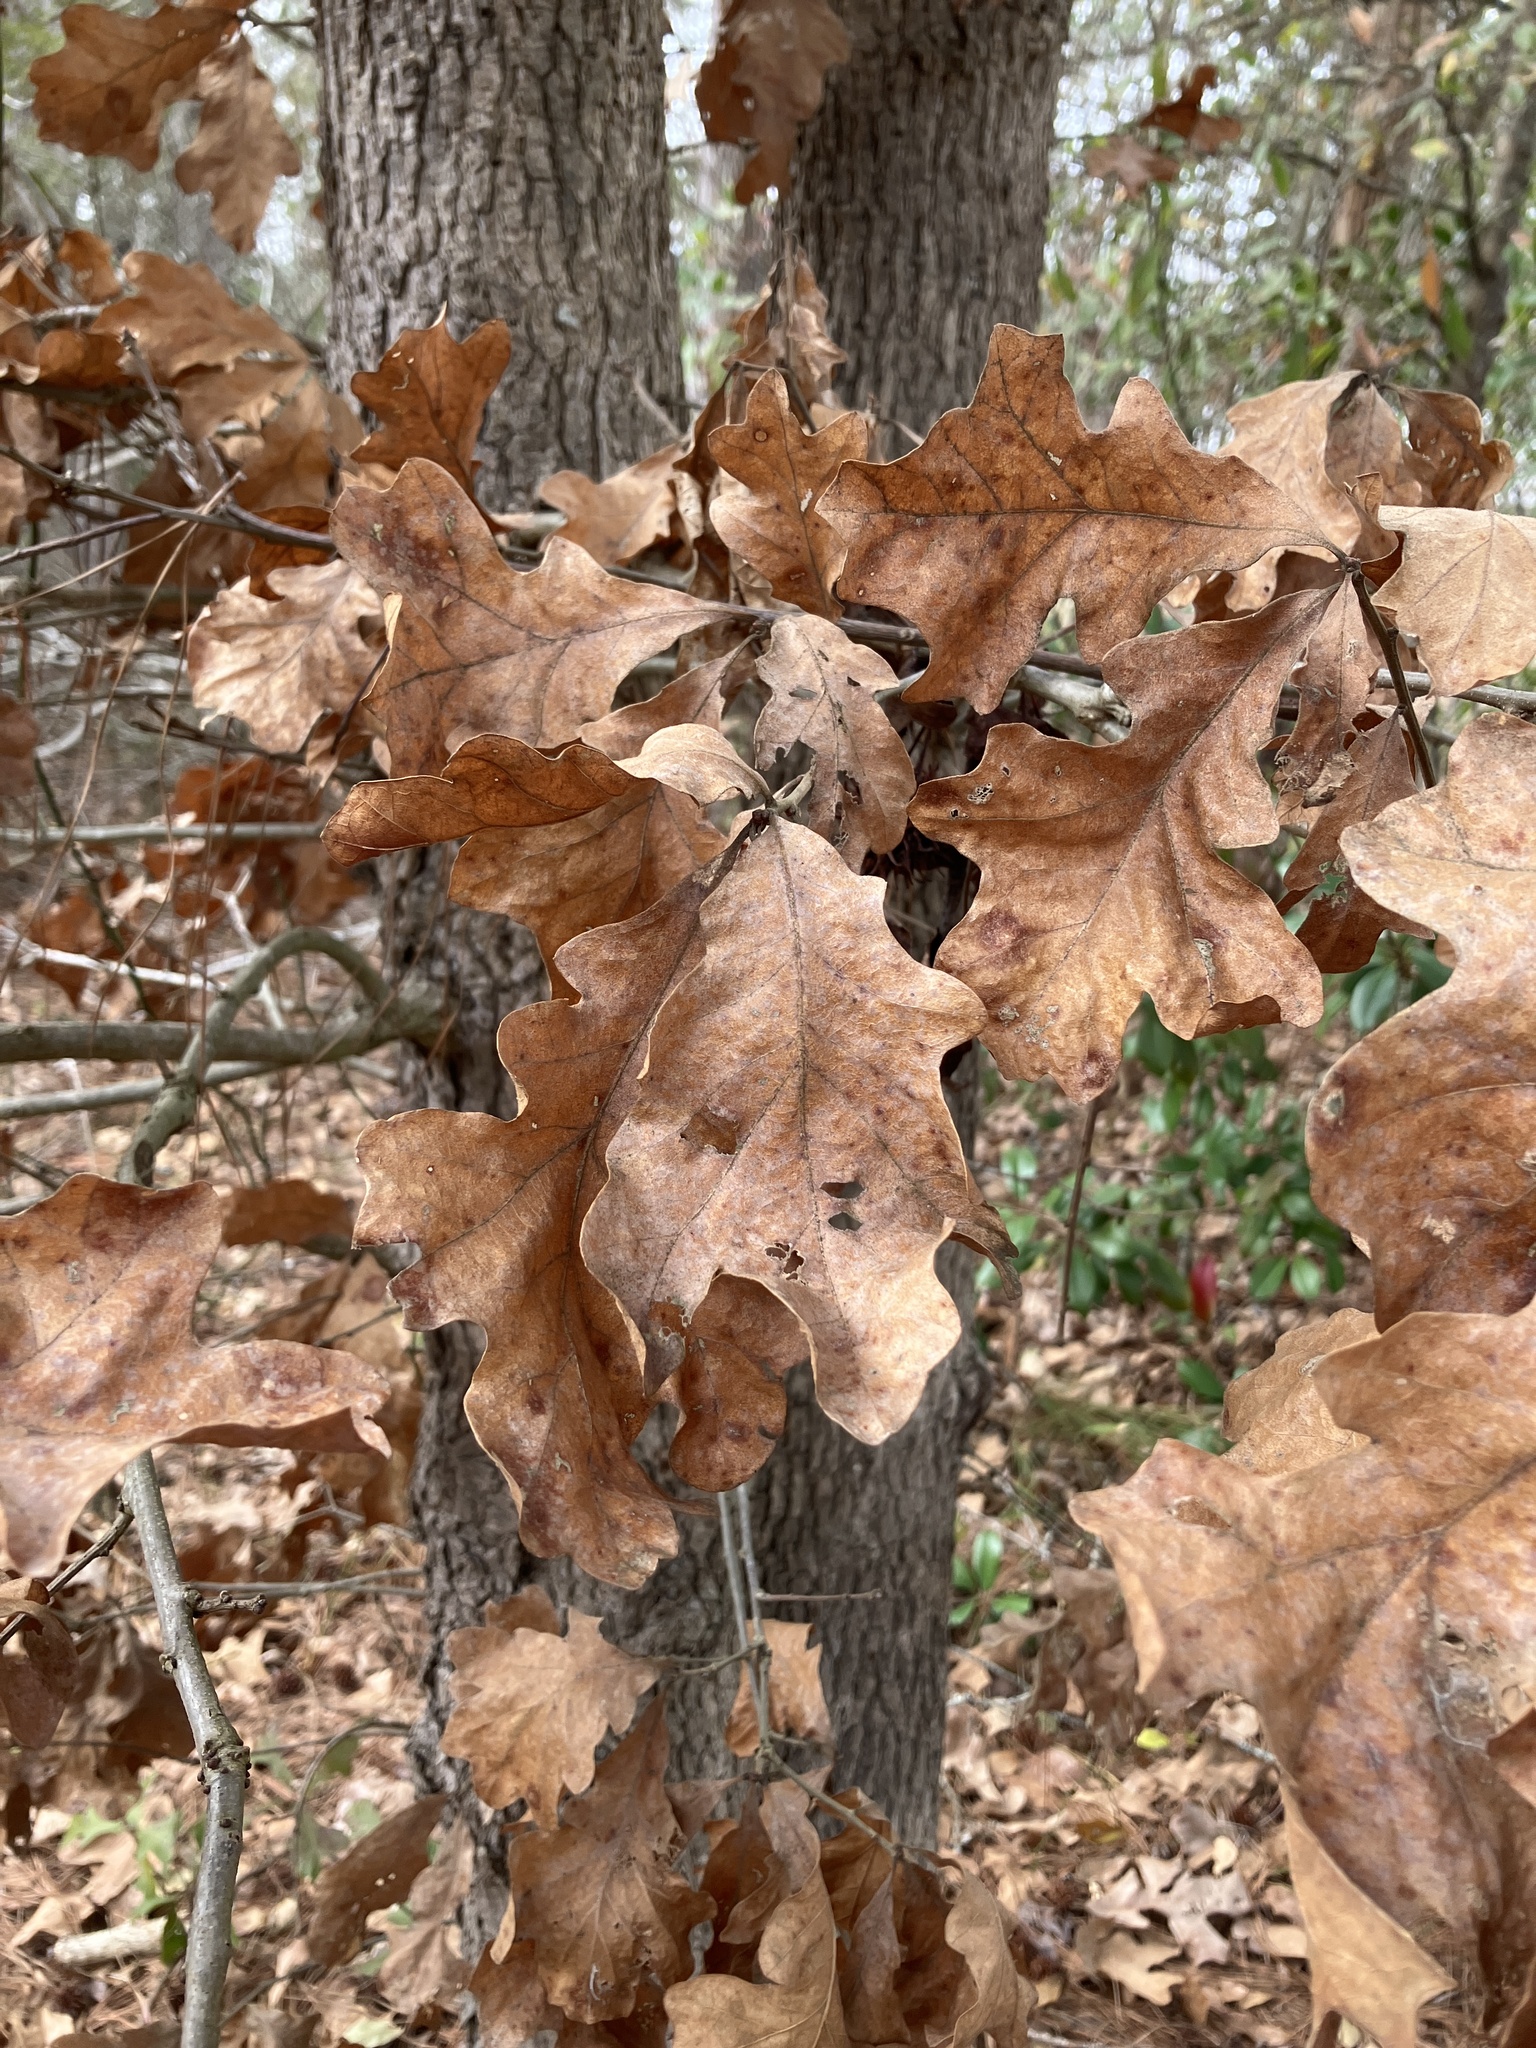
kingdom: Plantae
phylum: Tracheophyta
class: Magnoliopsida
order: Fagales
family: Fagaceae
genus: Quercus
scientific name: Quercus stellata
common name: Post oak
